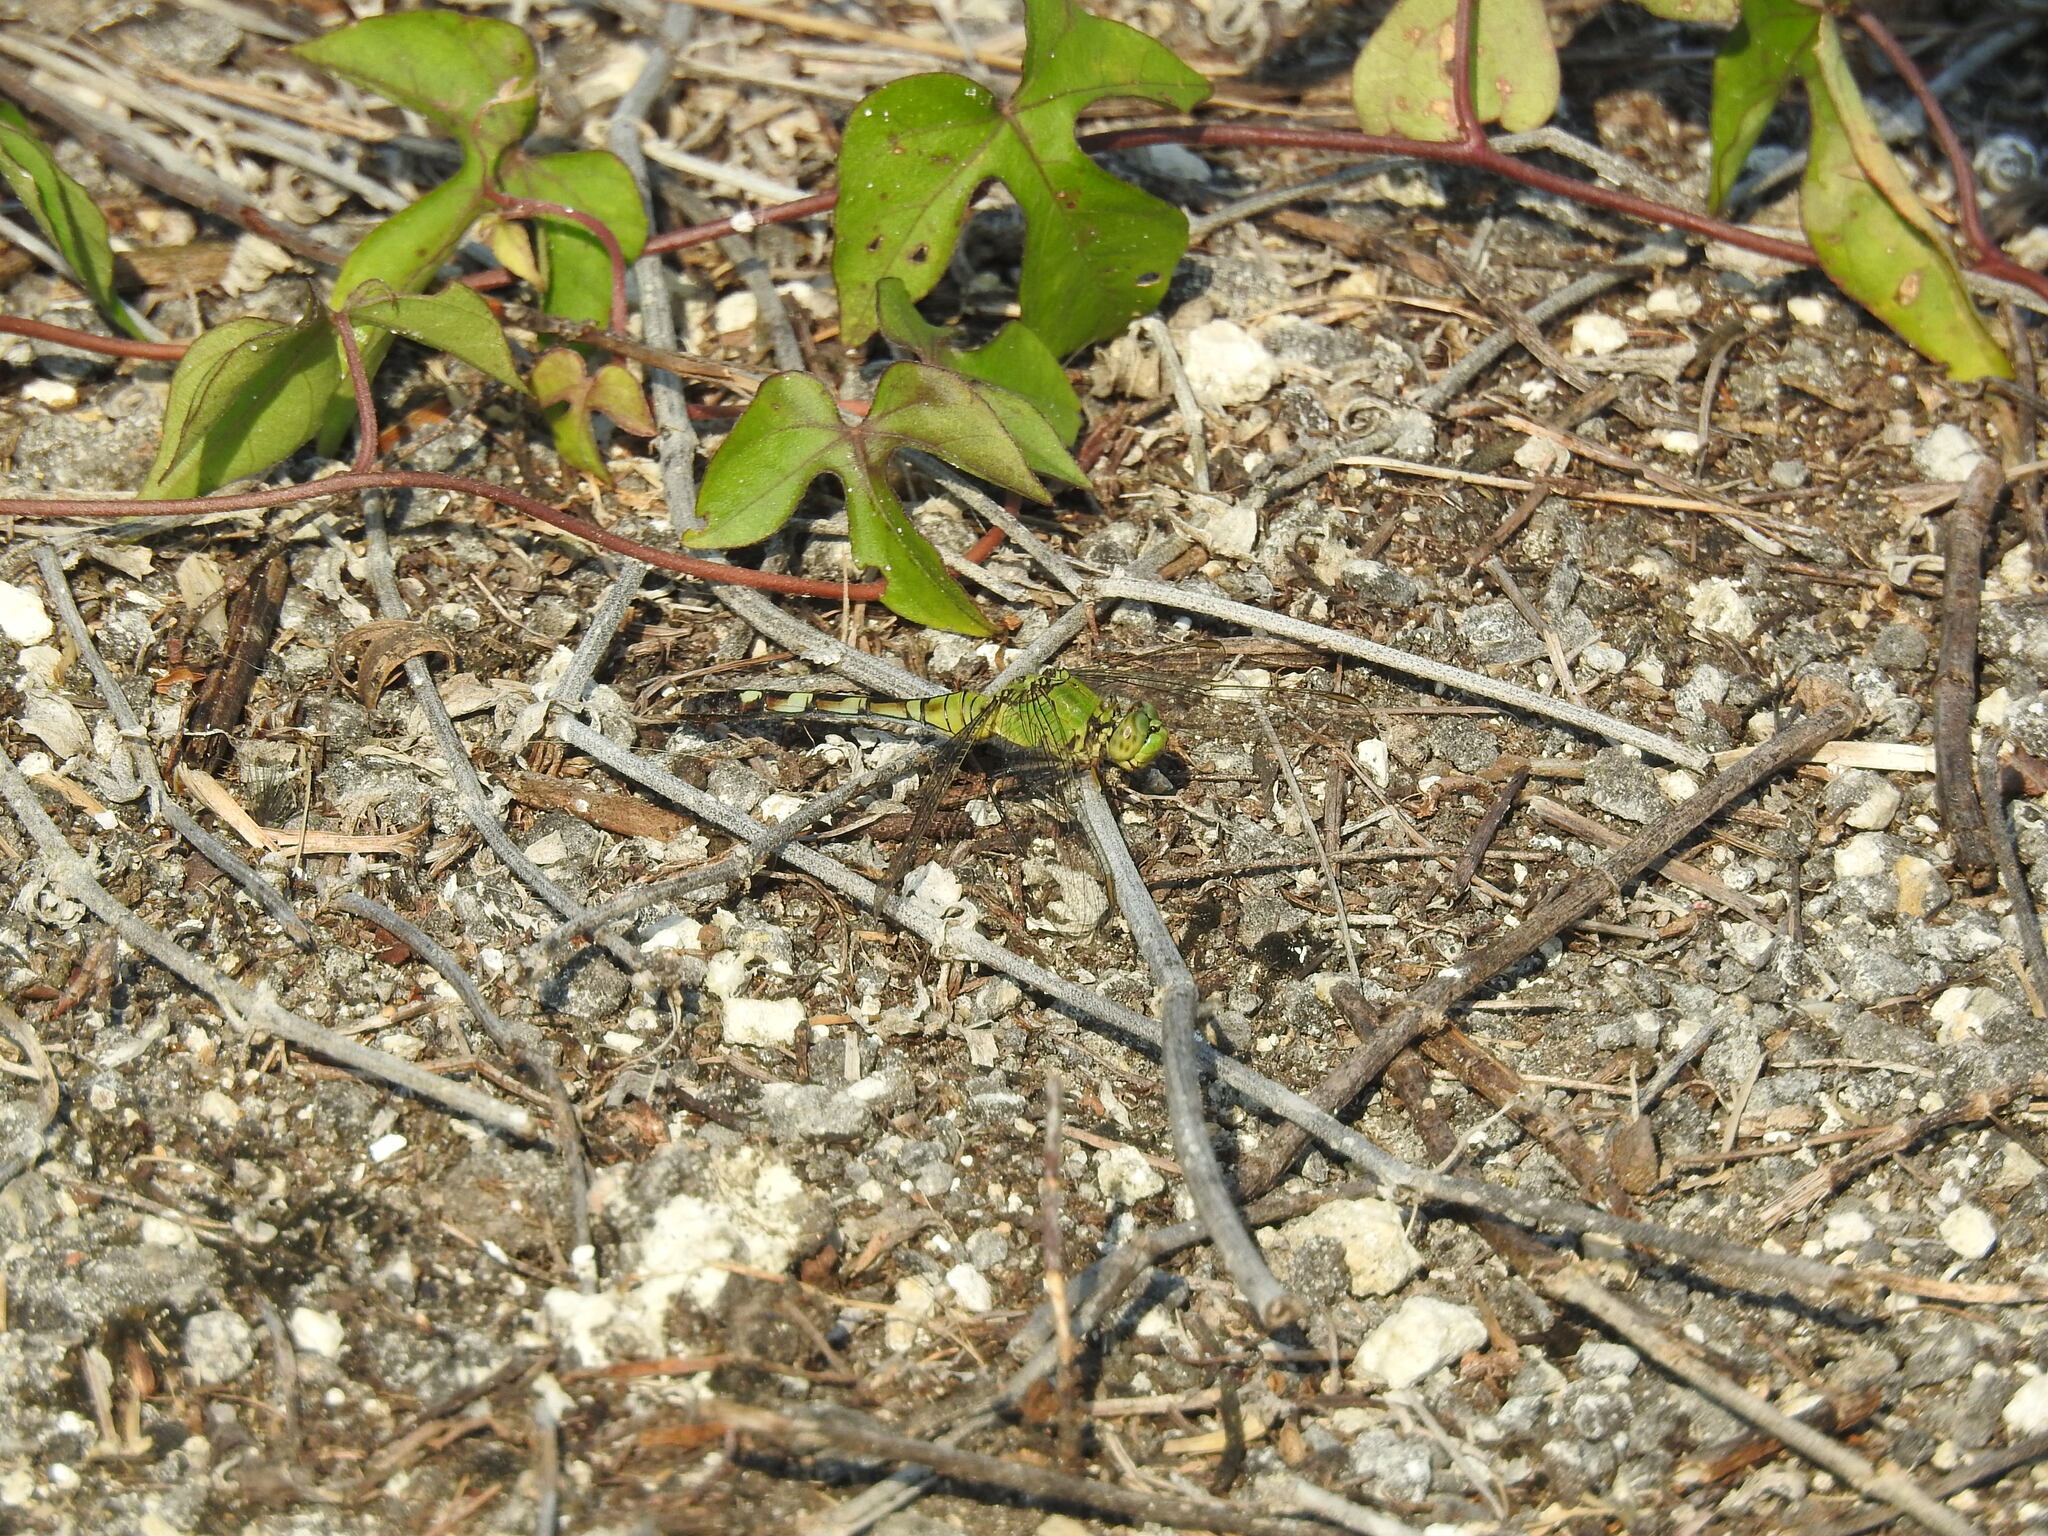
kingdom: Animalia
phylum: Arthropoda
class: Insecta
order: Odonata
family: Libellulidae
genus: Erythemis
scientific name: Erythemis simplicicollis
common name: Eastern pondhawk
